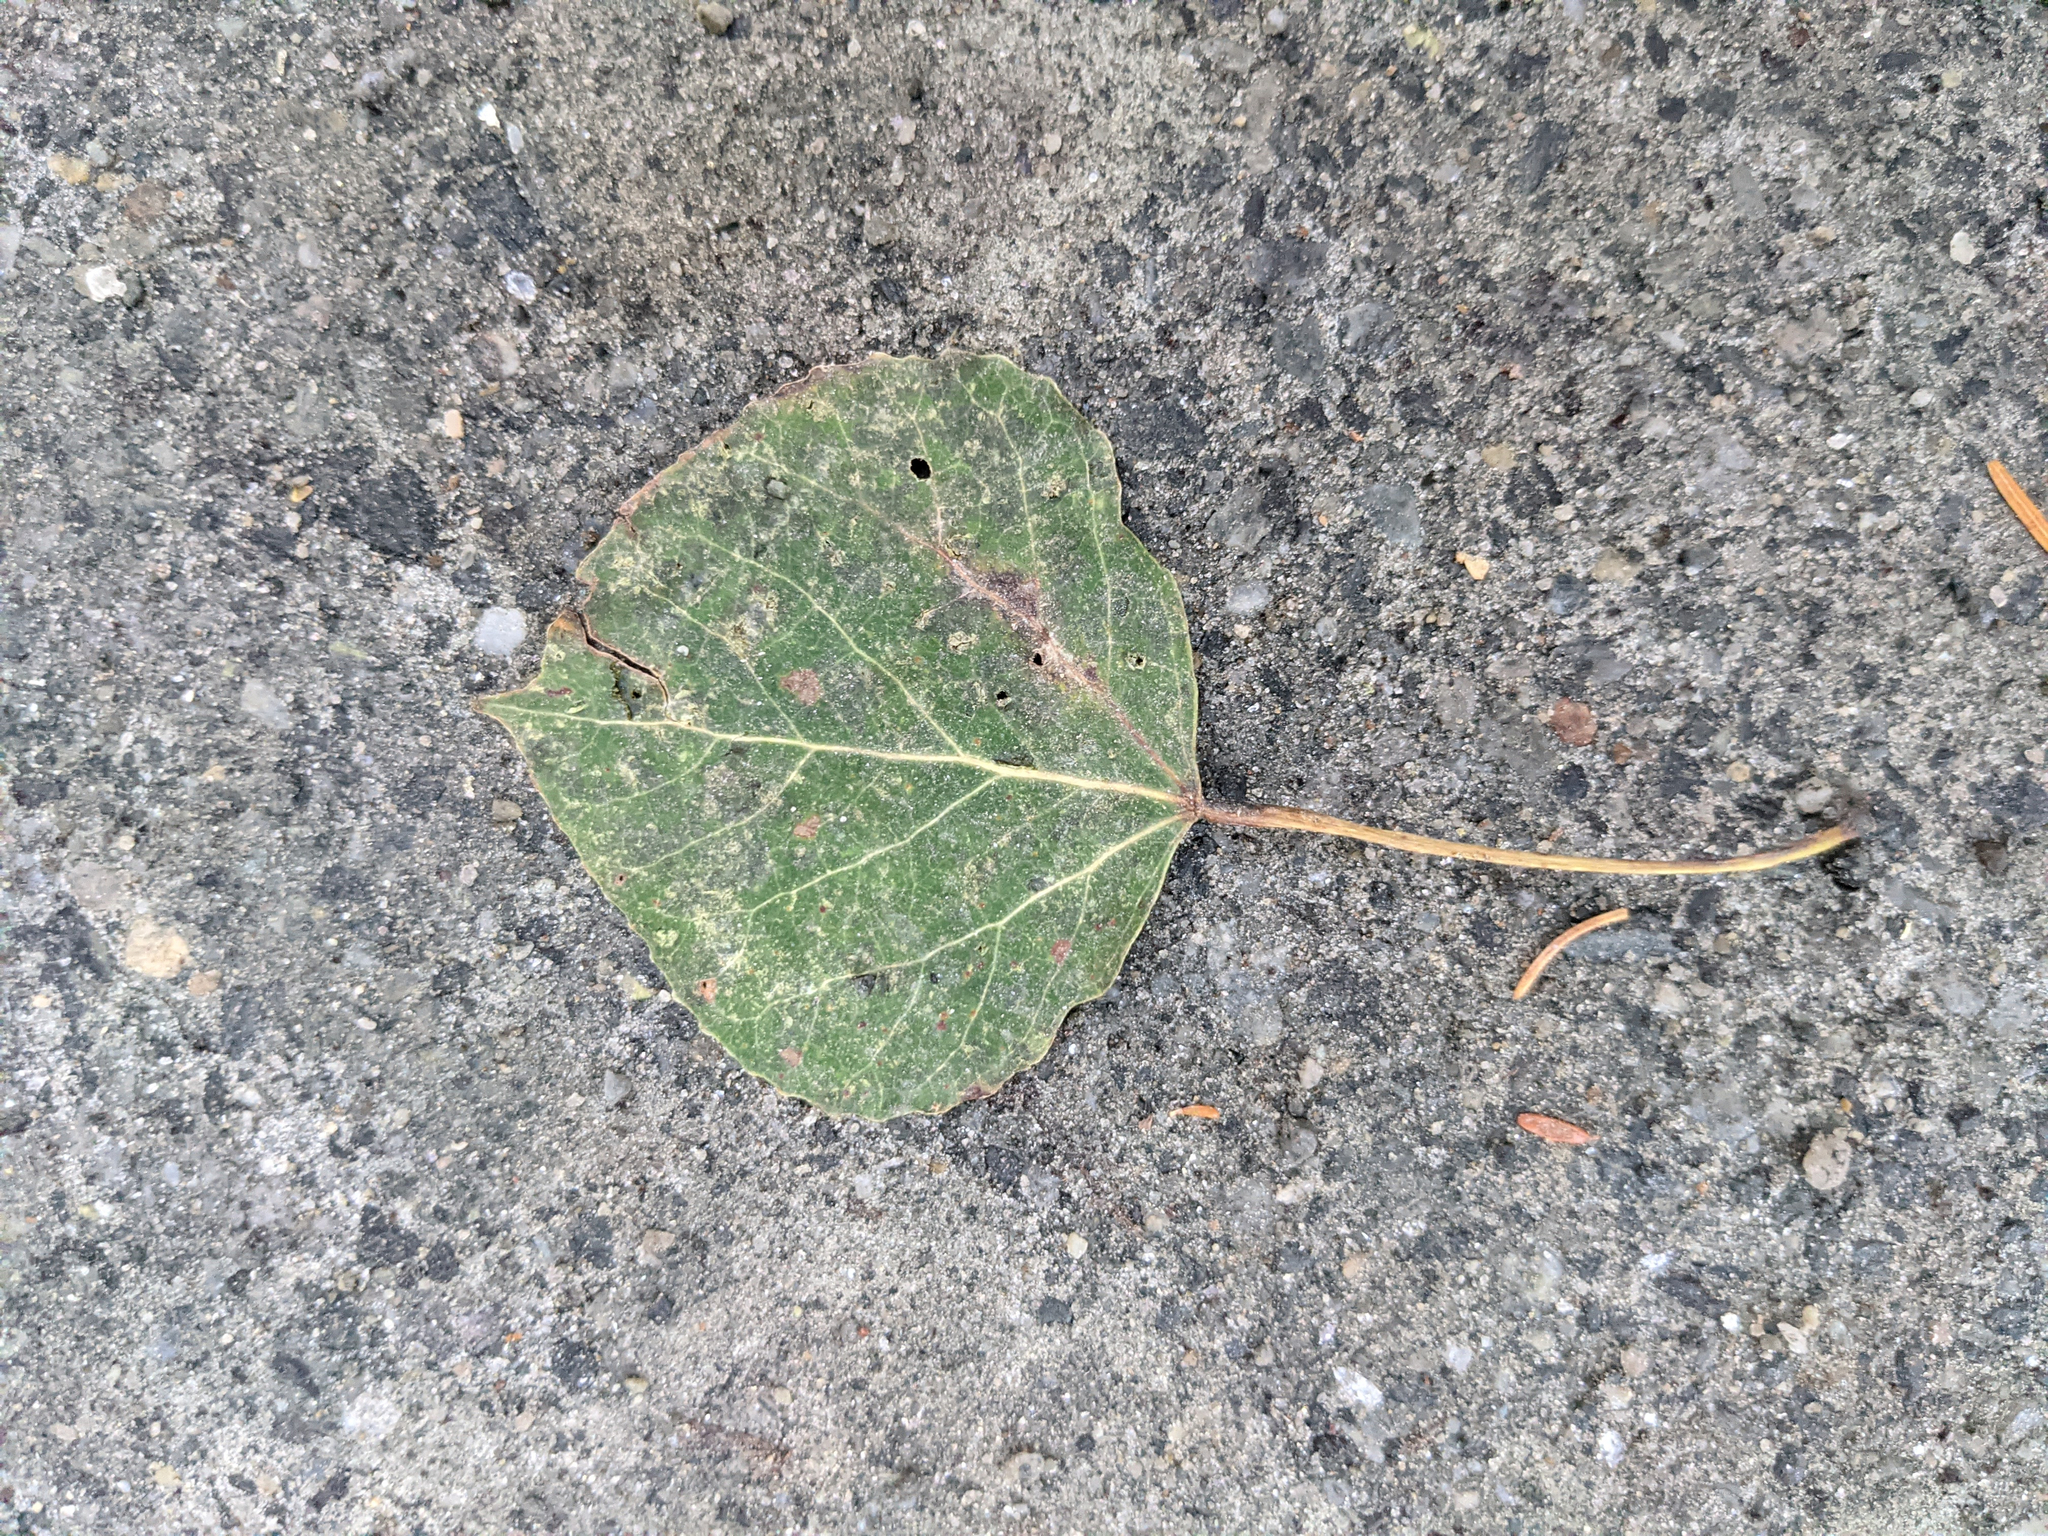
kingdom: Plantae
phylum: Tracheophyta
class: Magnoliopsida
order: Malpighiales
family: Salicaceae
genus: Populus
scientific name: Populus tremuloides
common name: Quaking aspen
